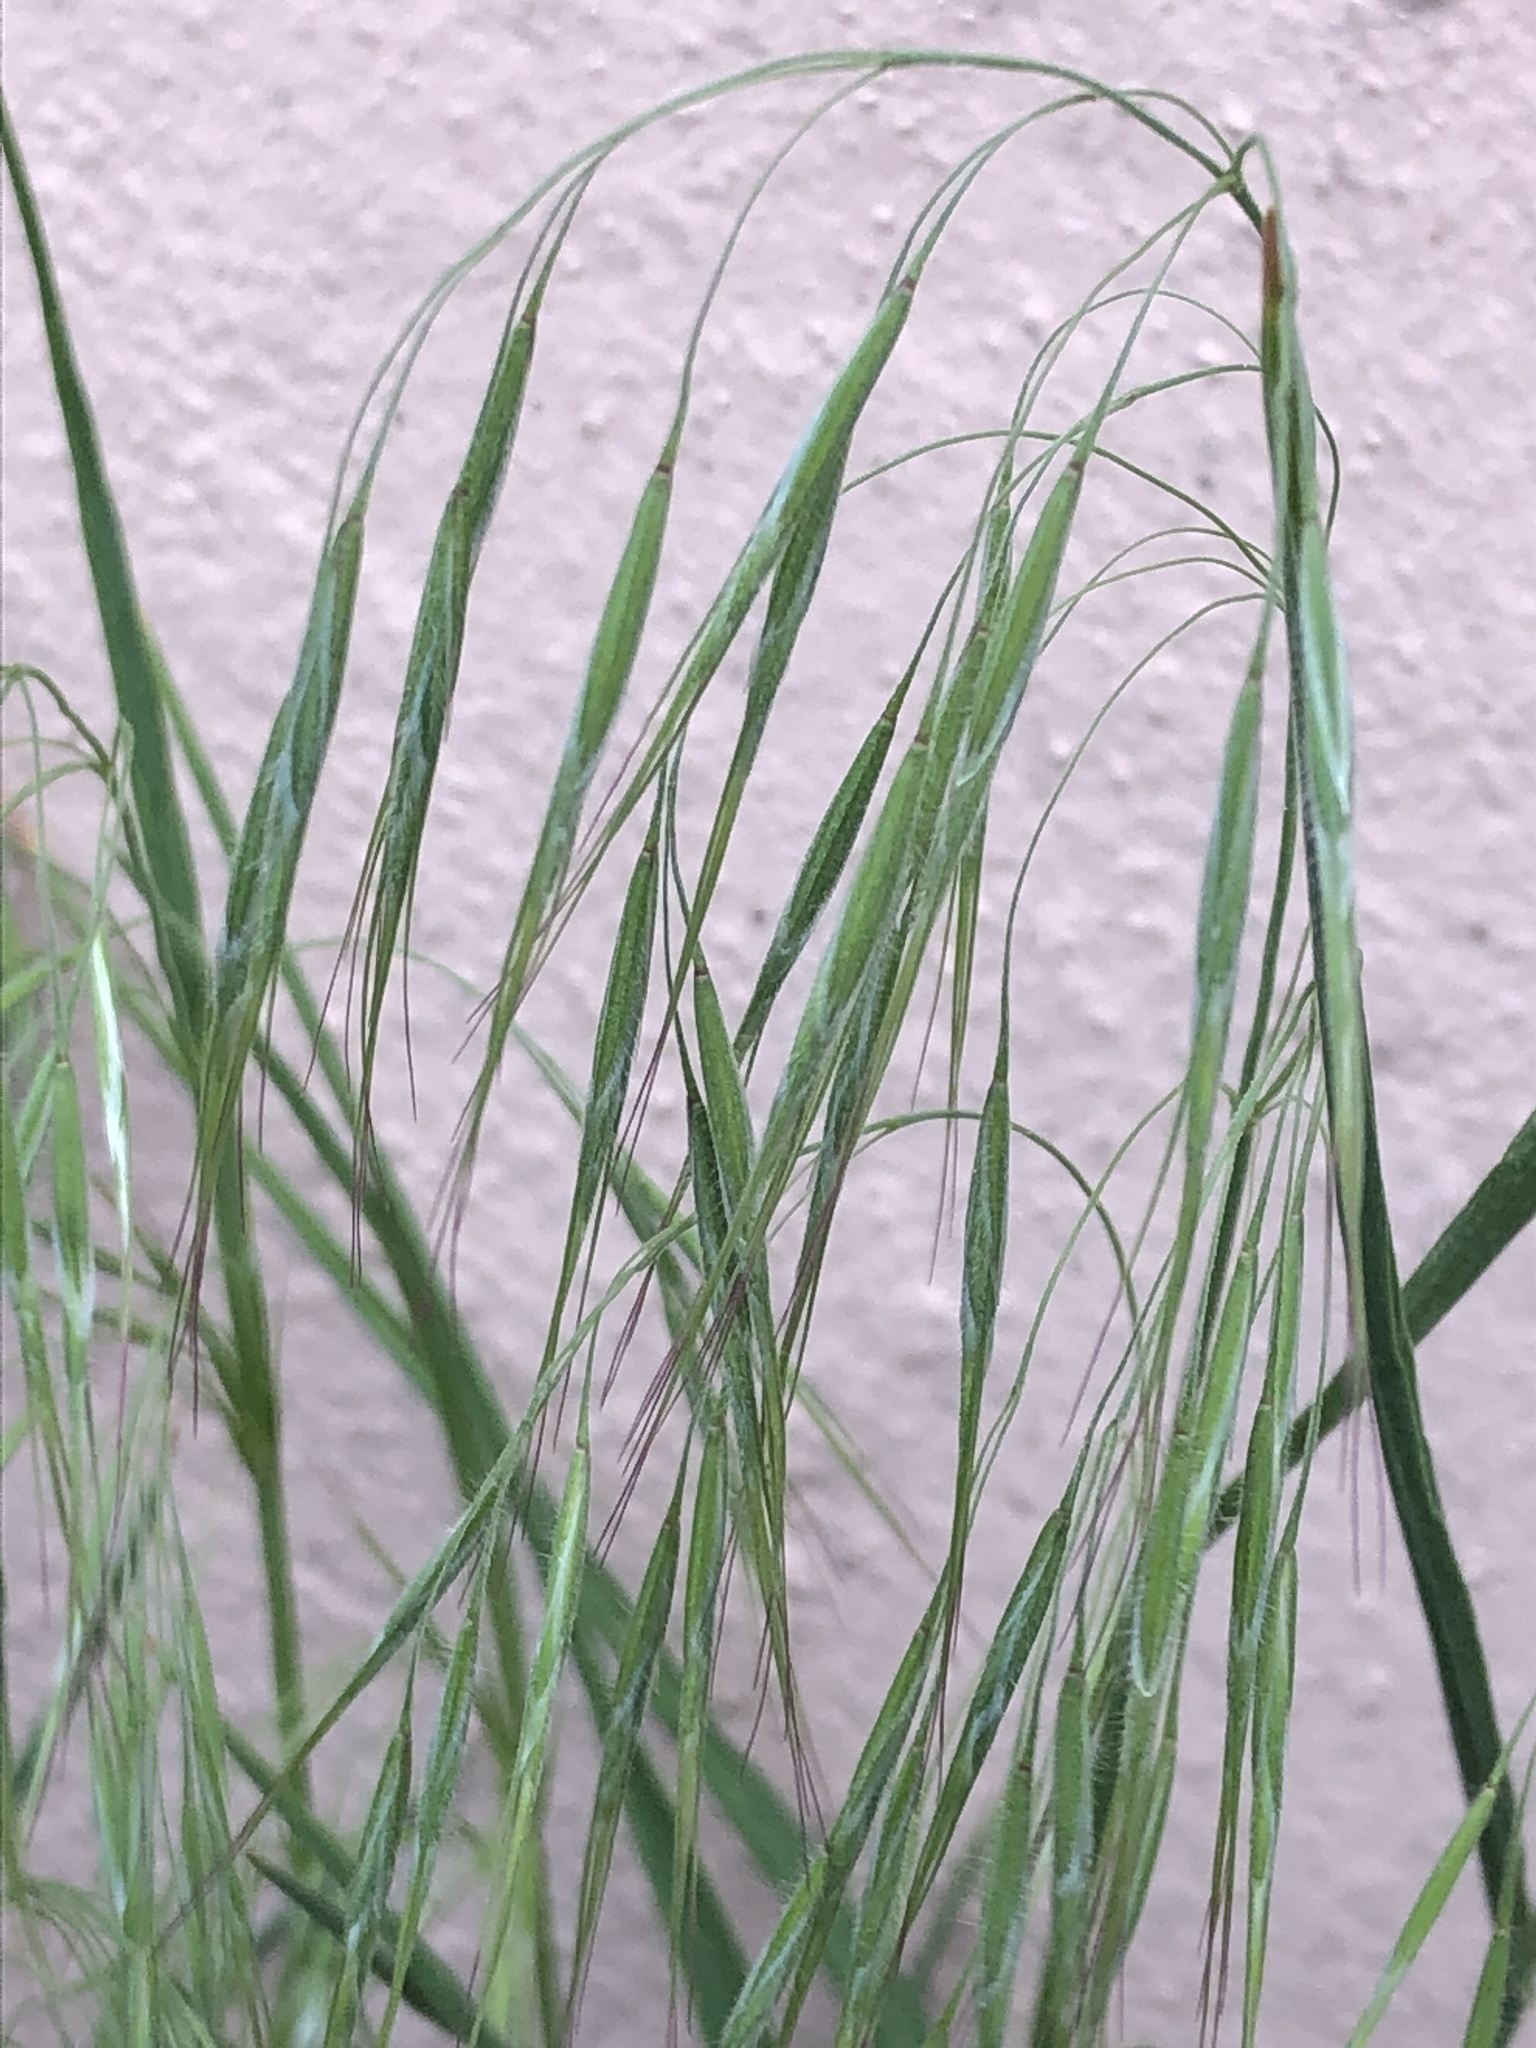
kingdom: Plantae
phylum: Tracheophyta
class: Liliopsida
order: Poales
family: Poaceae
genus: Bromus
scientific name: Bromus tectorum
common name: Cheatgrass
